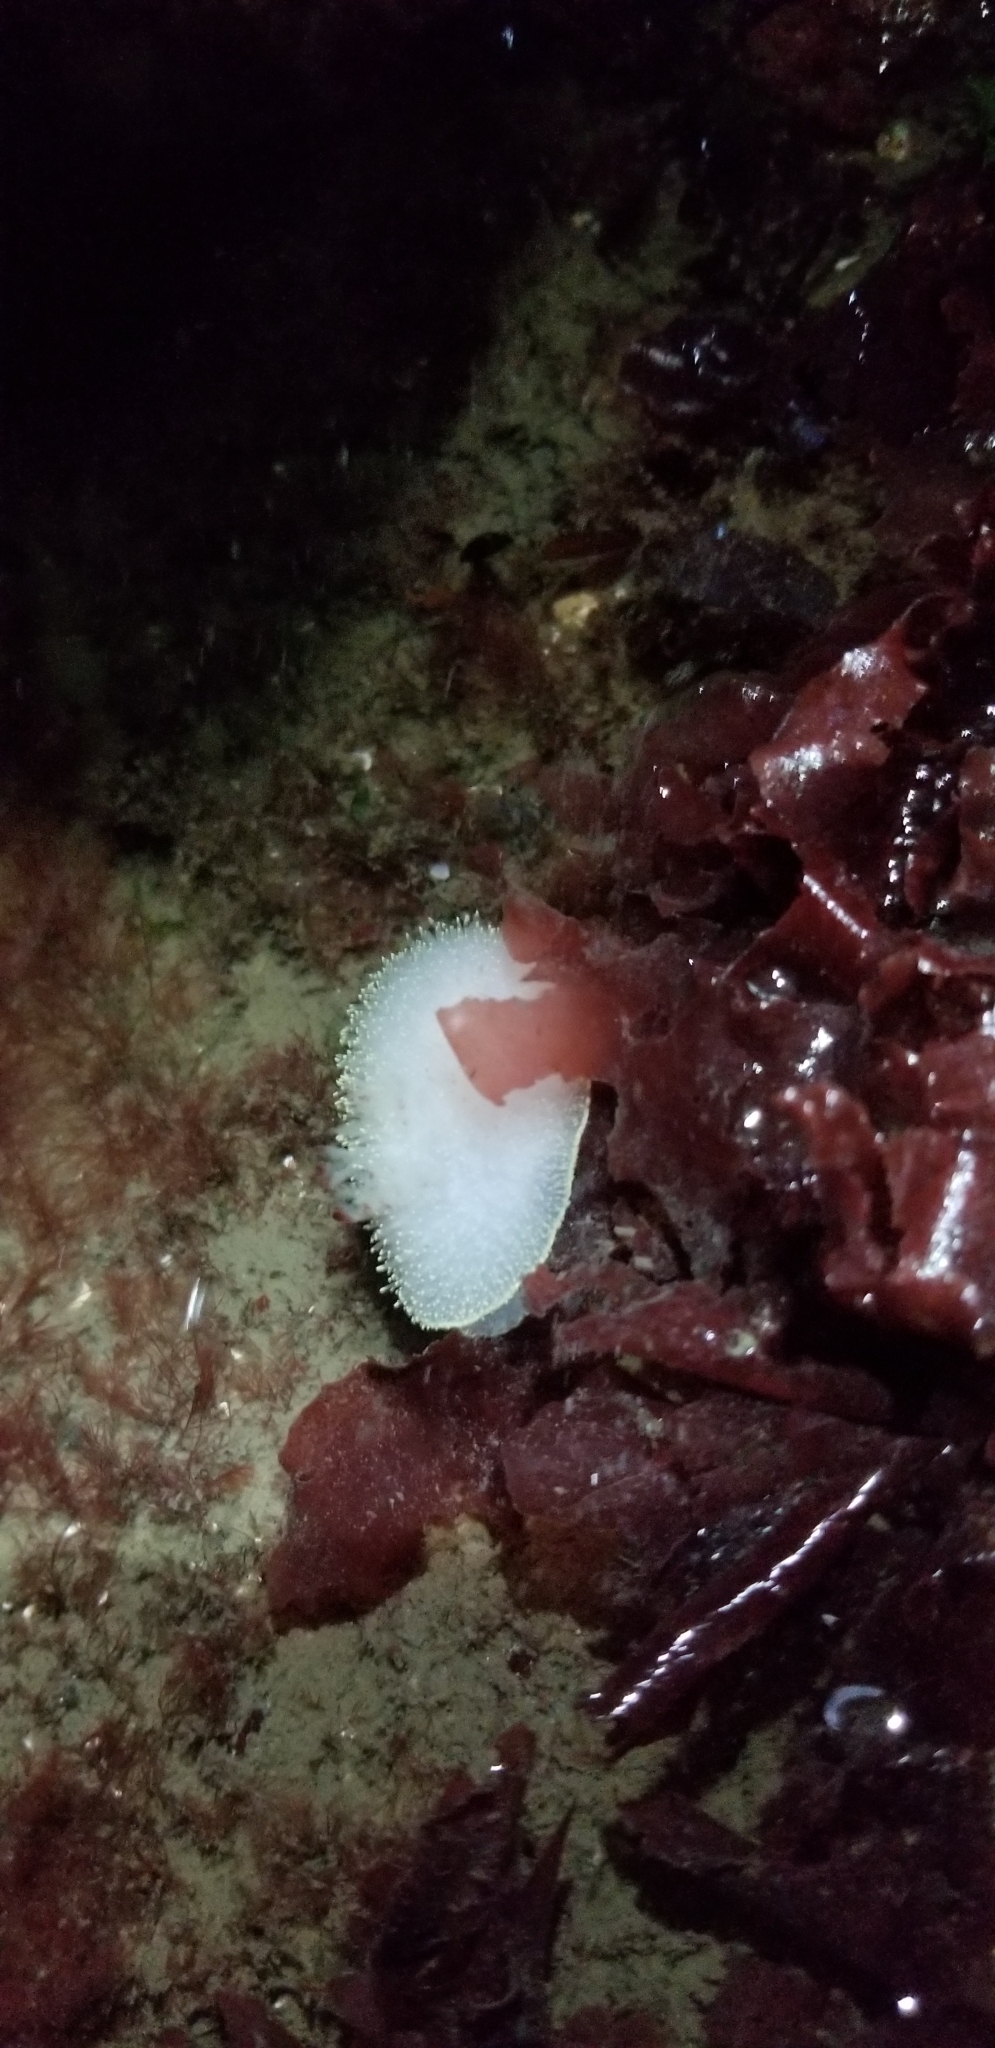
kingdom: Animalia
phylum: Mollusca
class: Gastropoda
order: Nudibranchia
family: Onchidorididae
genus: Acanthodoris
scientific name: Acanthodoris hudsoni
